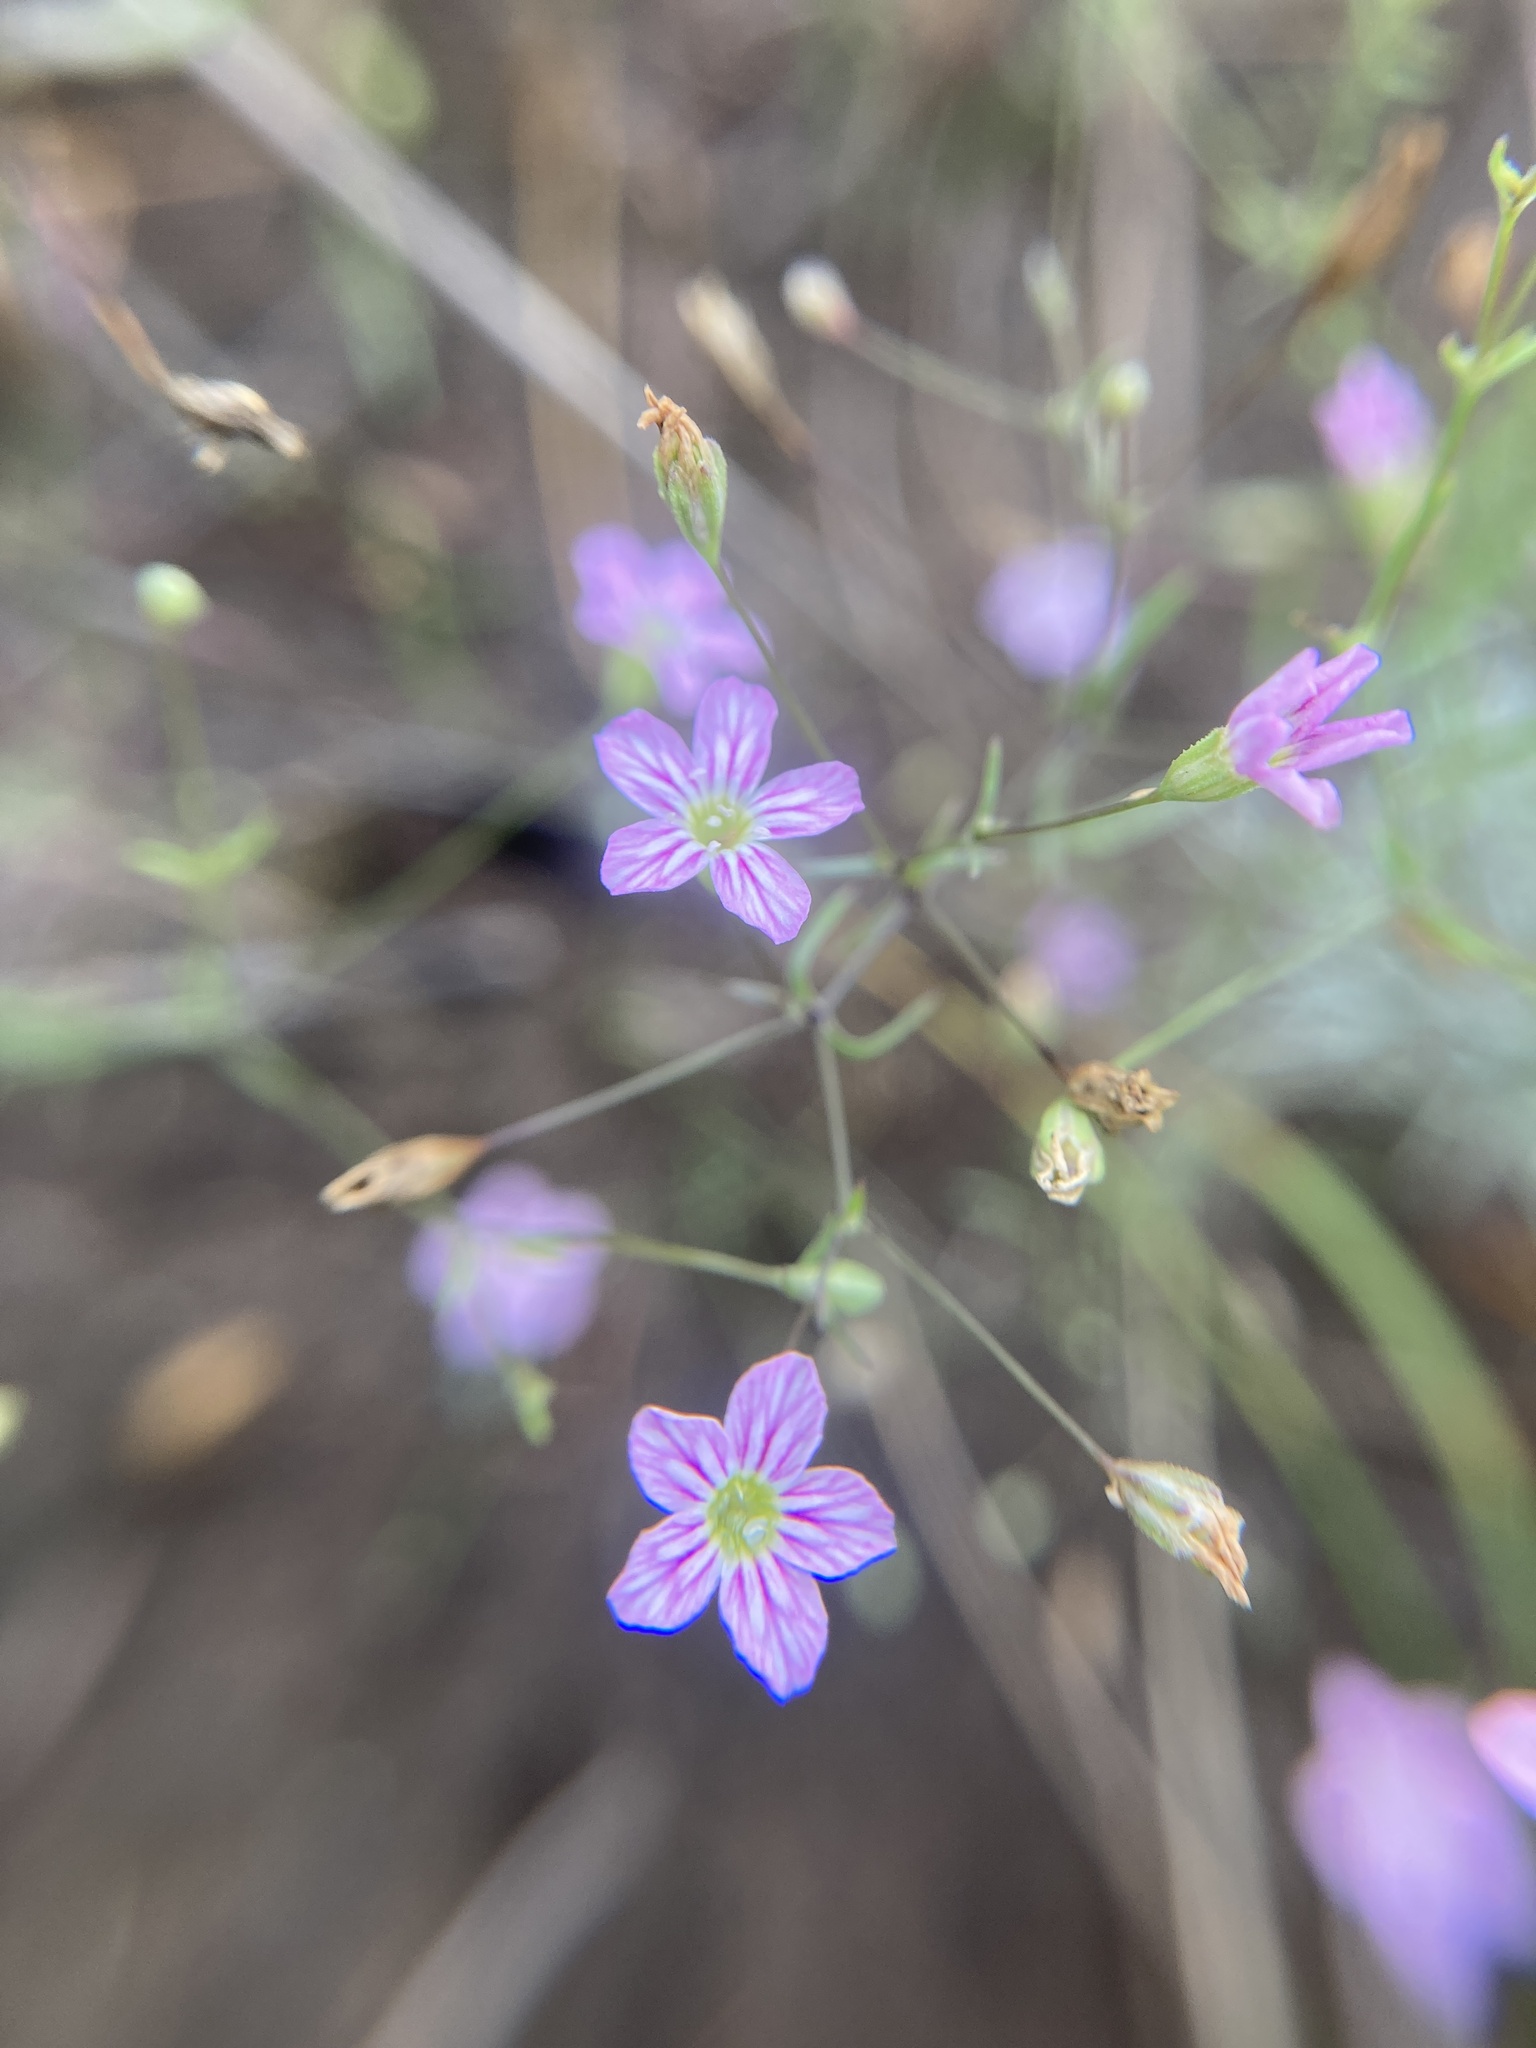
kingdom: Plantae
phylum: Tracheophyta
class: Magnoliopsida
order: Caryophyllales
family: Caryophyllaceae
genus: Psammophiliella
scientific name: Psammophiliella muralis
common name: Cushion baby's-breath
